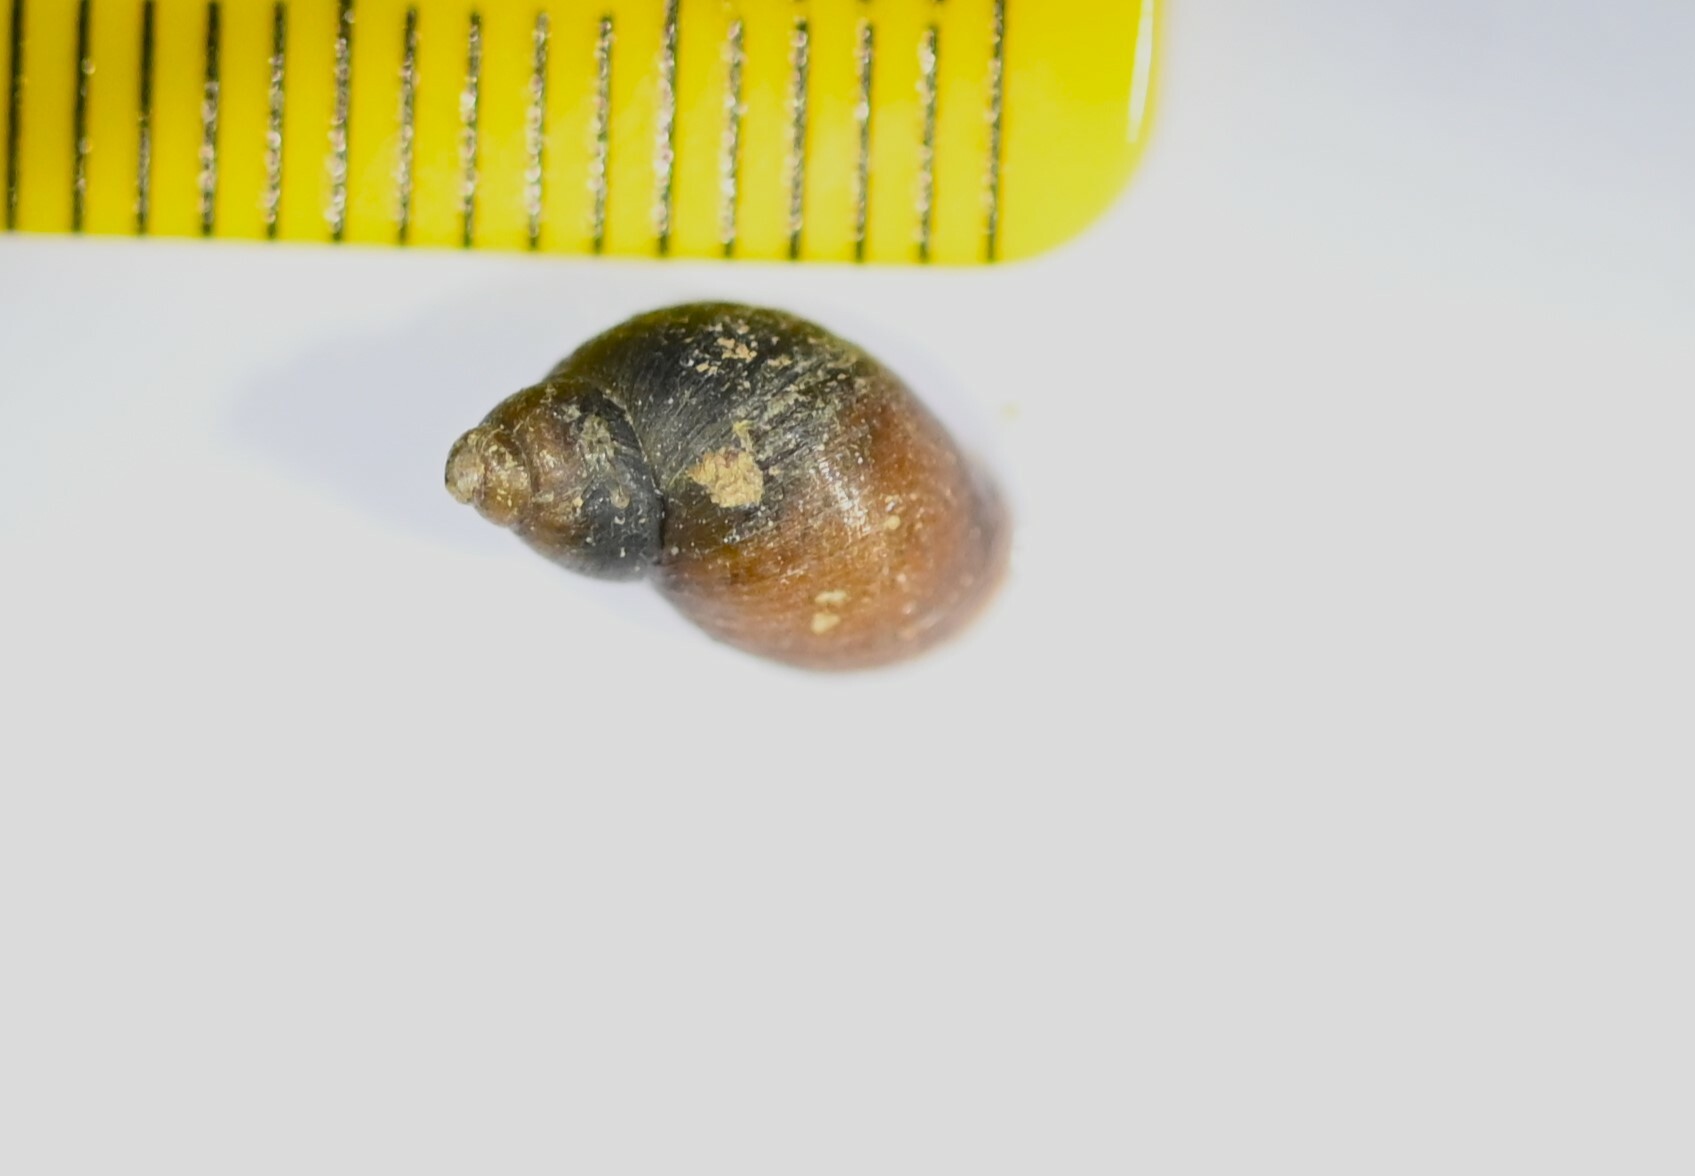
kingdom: Animalia
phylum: Mollusca
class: Gastropoda
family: Lymnaeidae
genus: Galba
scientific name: Galba truncatula
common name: Dwarf pond snail
